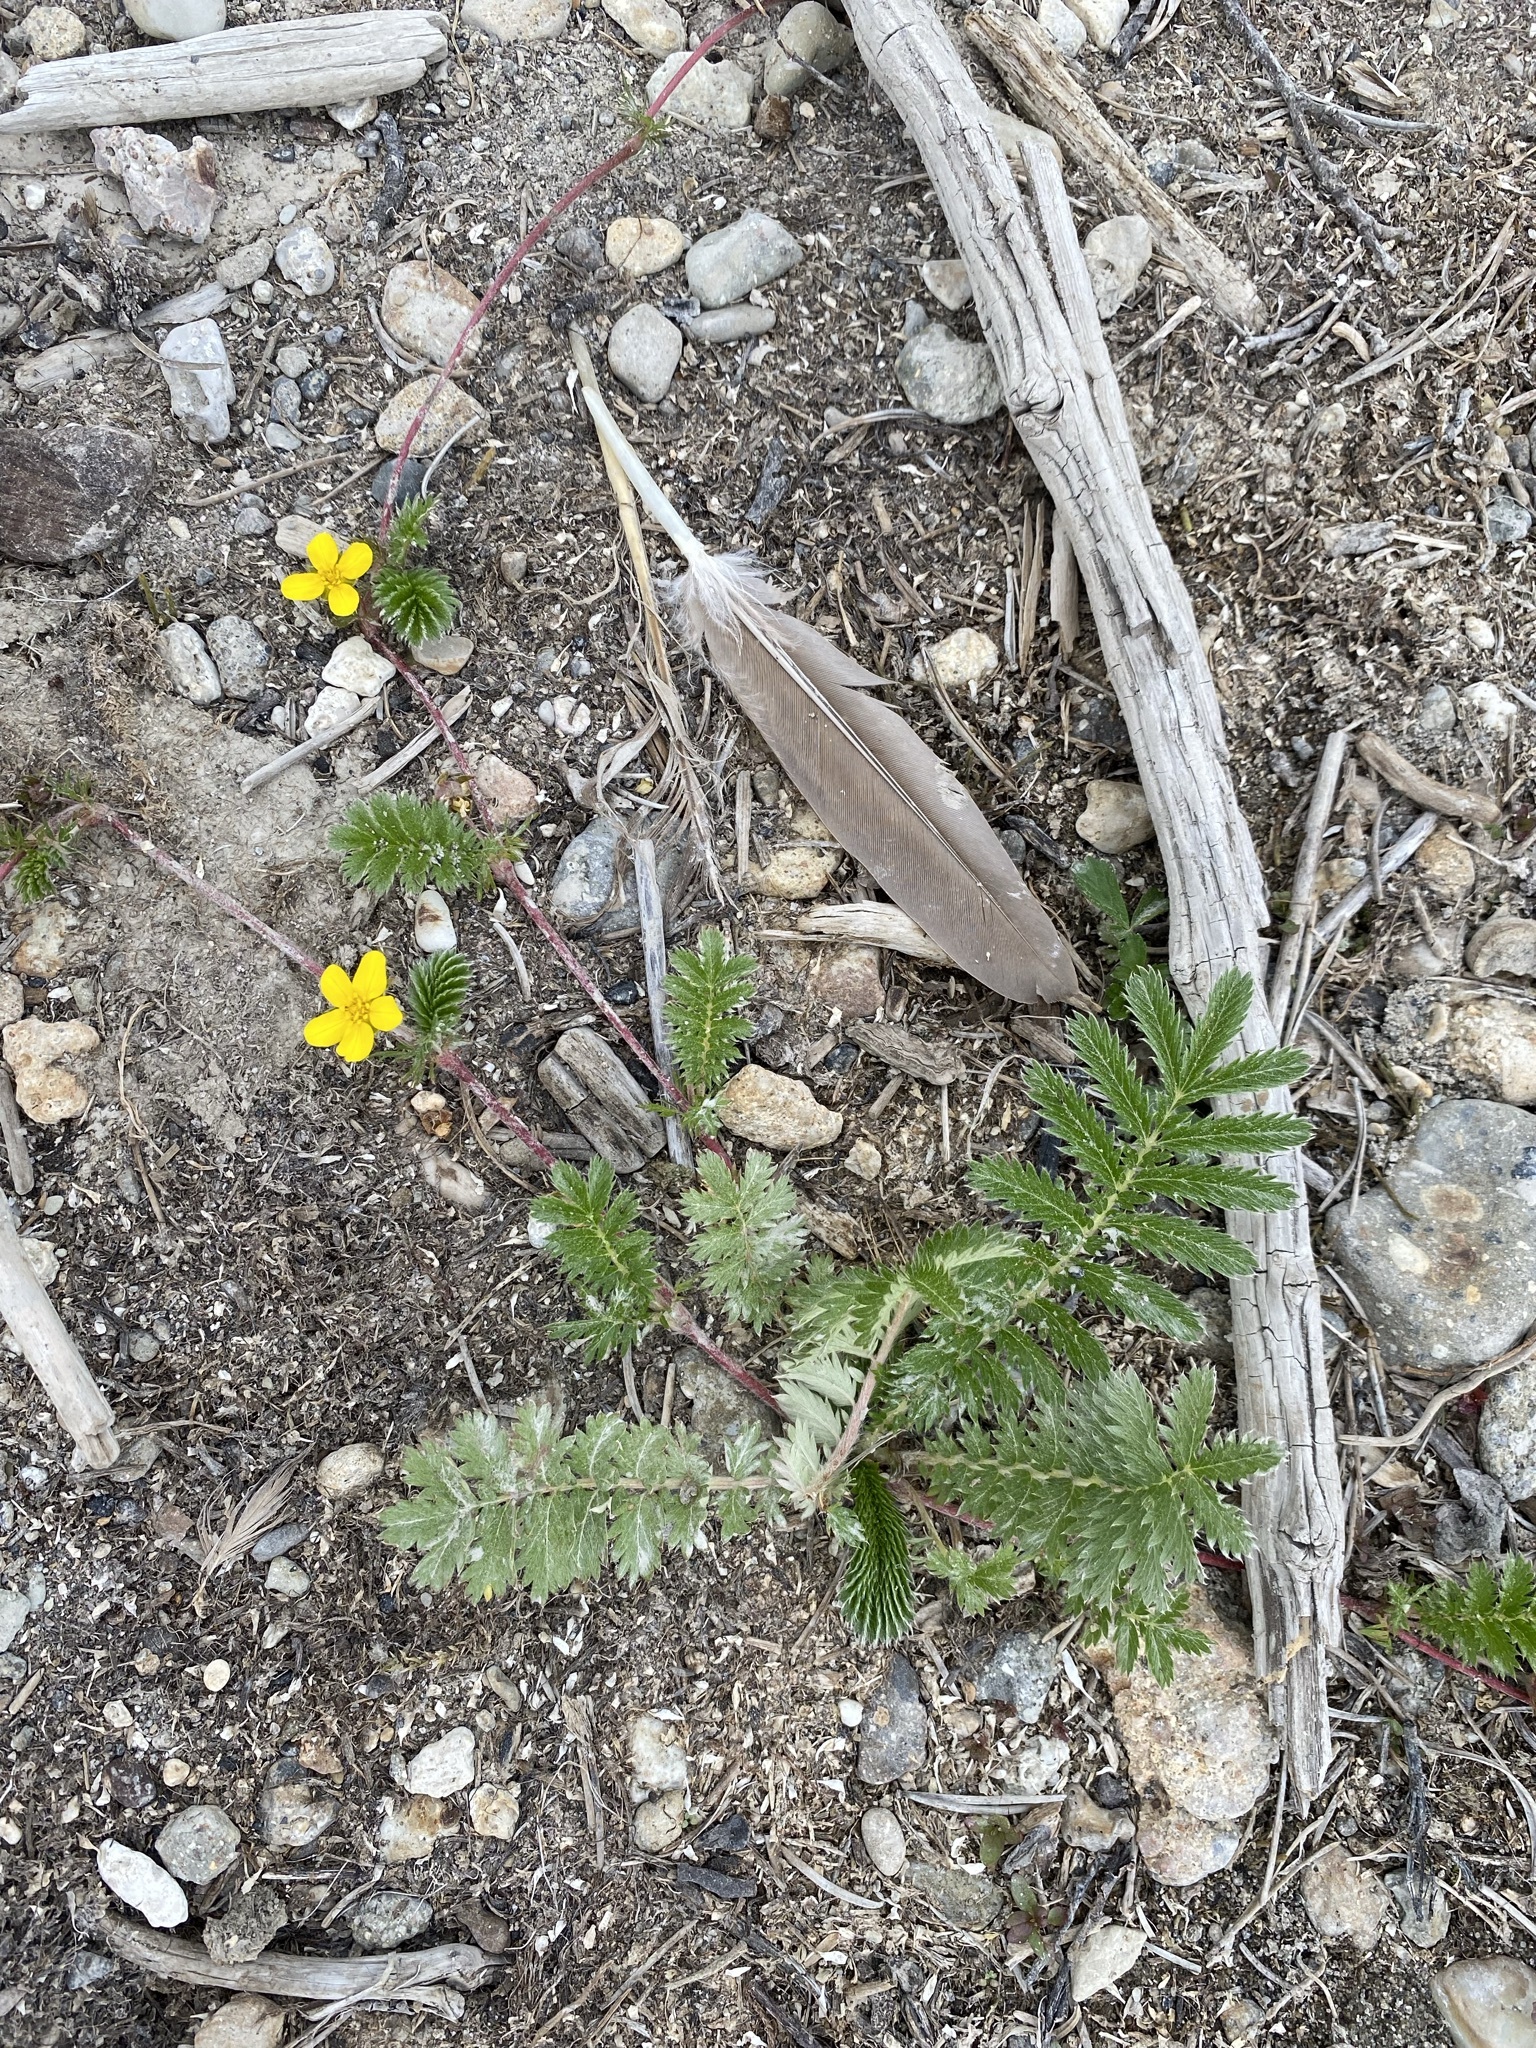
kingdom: Plantae
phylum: Tracheophyta
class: Magnoliopsida
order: Rosales
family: Rosaceae
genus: Argentina
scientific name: Argentina anserina
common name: Common silverweed
